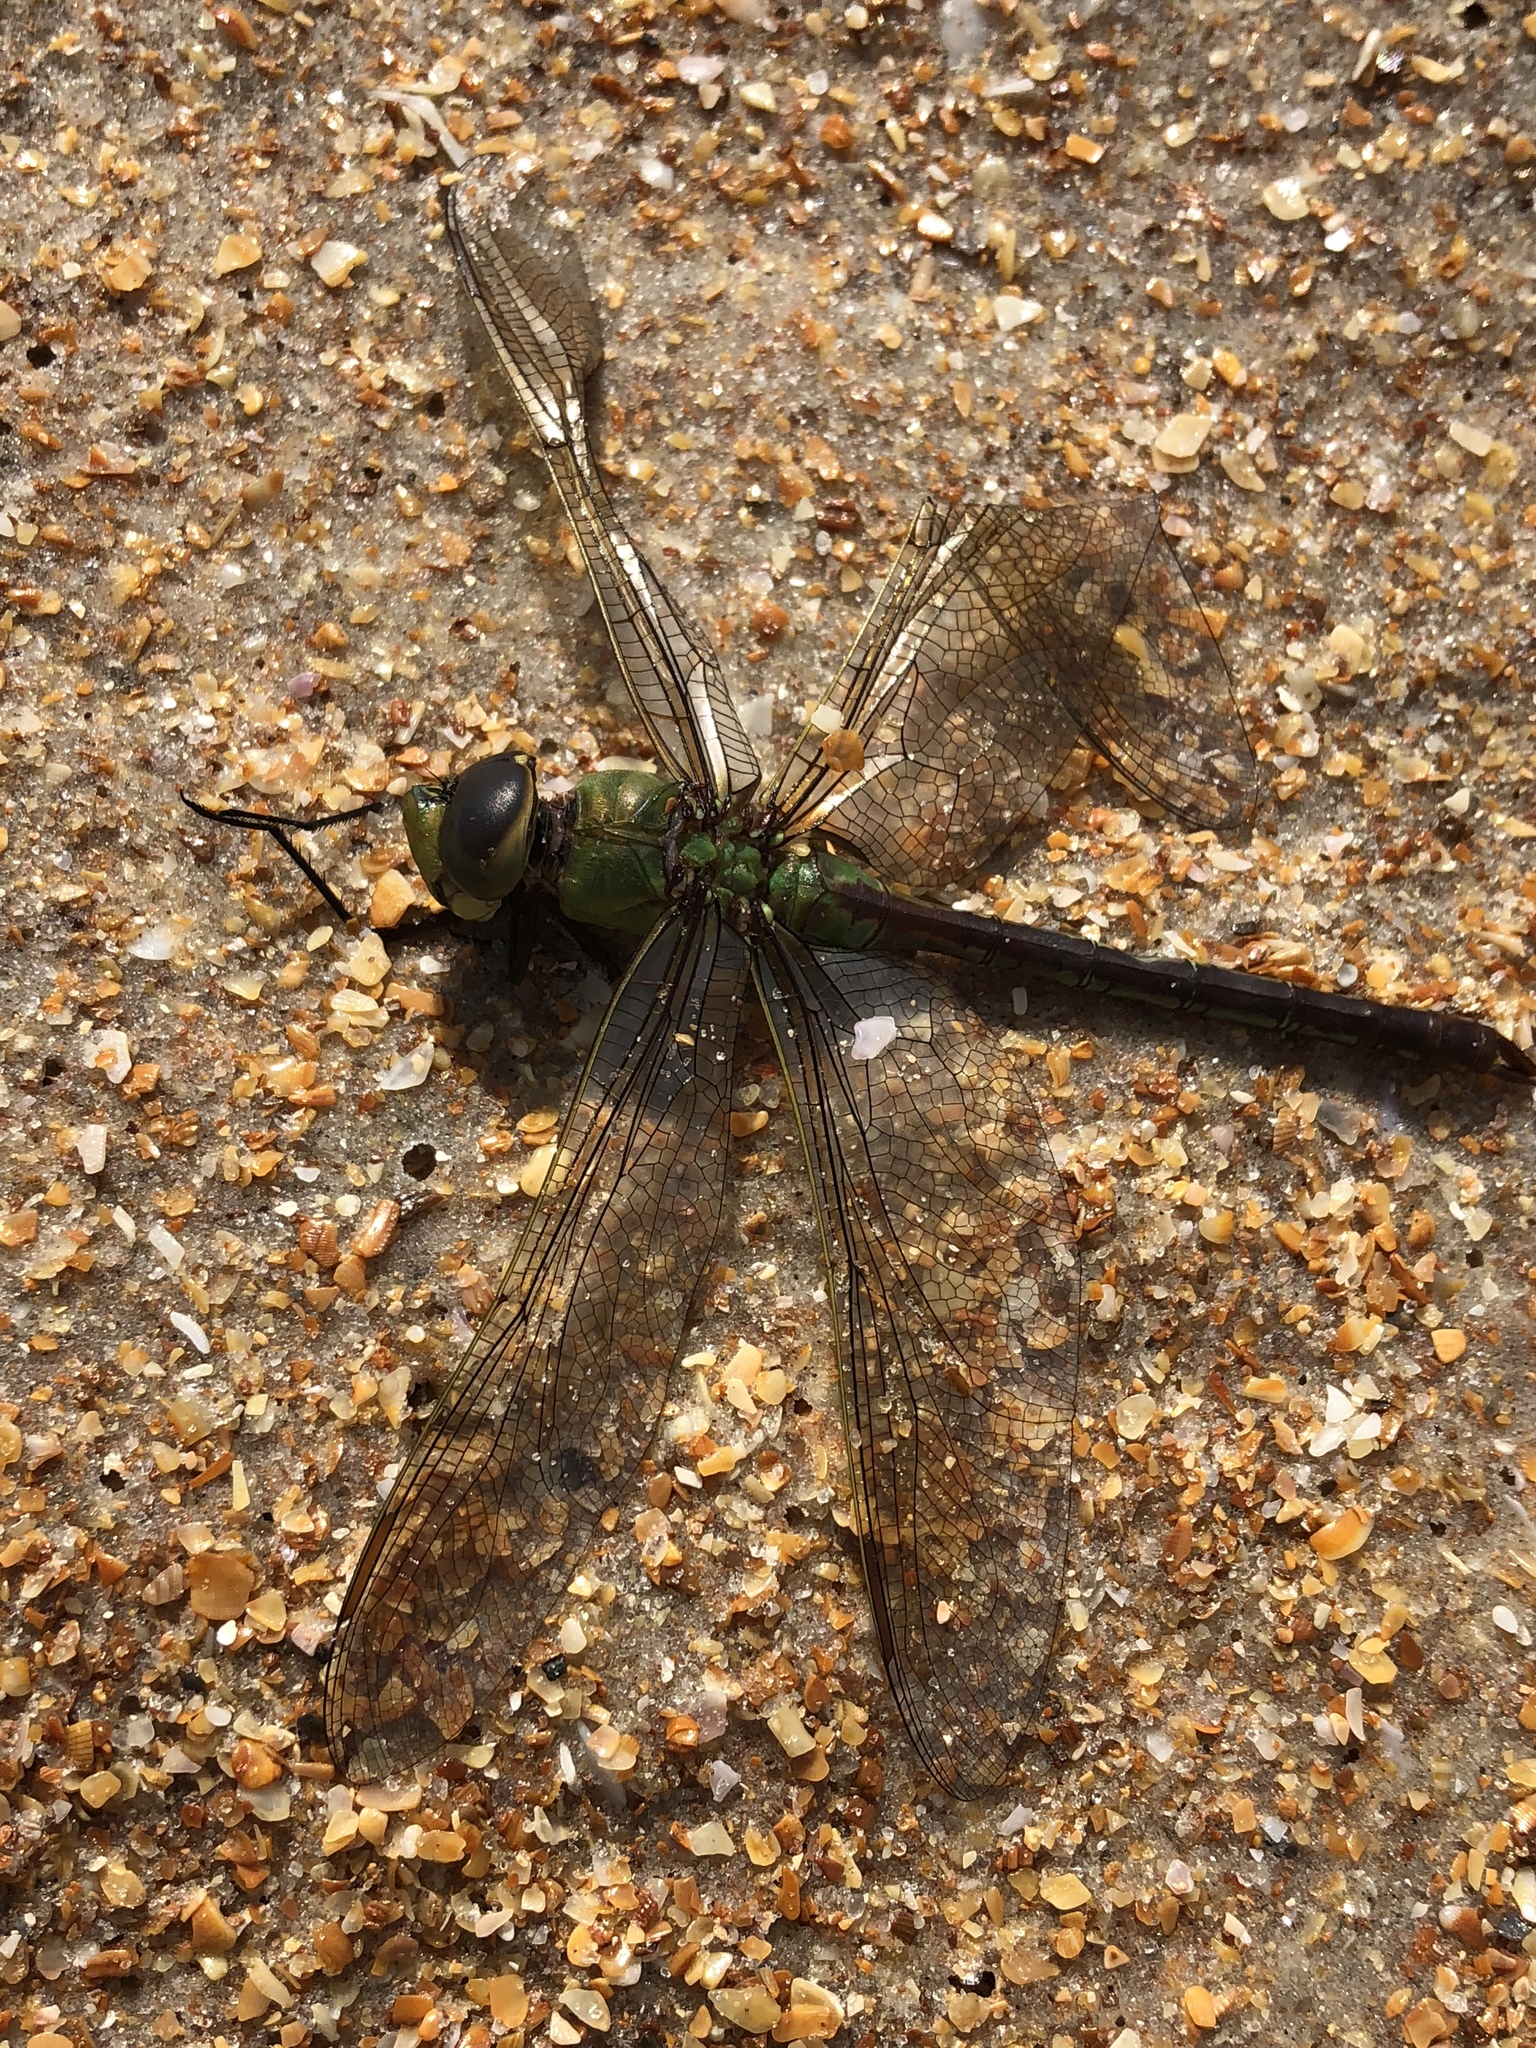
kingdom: Animalia
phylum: Arthropoda
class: Insecta
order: Odonata
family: Aeshnidae
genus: Anax
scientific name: Anax junius
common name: Common green darner
